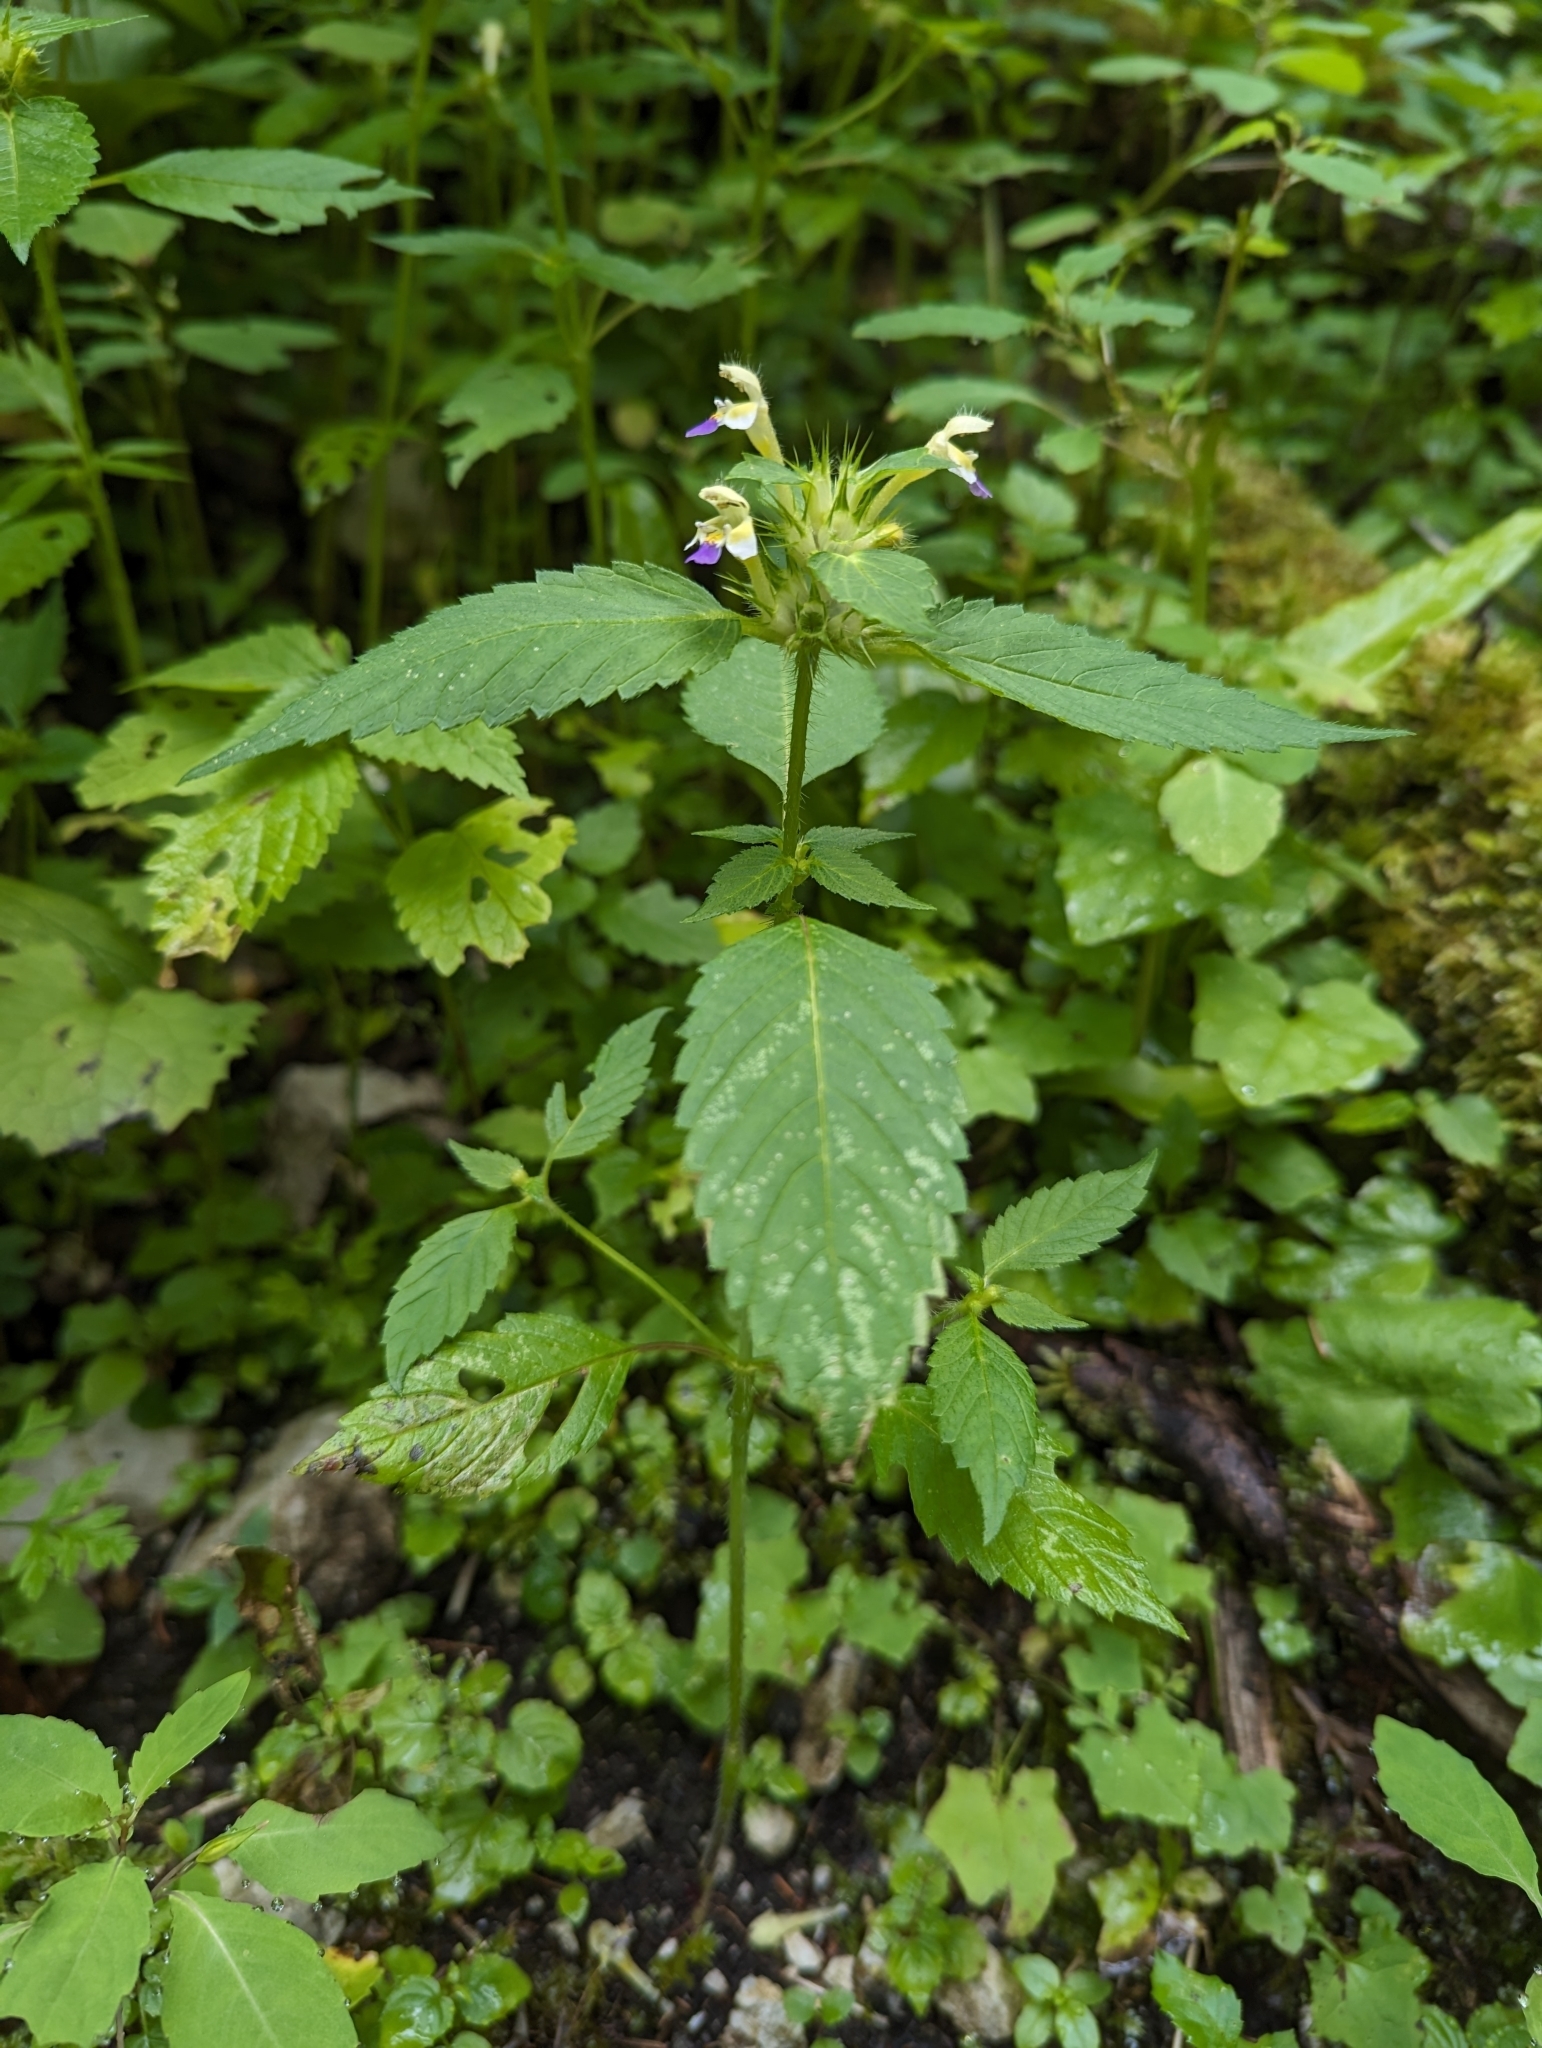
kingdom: Plantae
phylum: Tracheophyta
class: Magnoliopsida
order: Lamiales
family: Lamiaceae
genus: Galeopsis
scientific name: Galeopsis speciosa
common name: Large-flowered hemp-nettle
